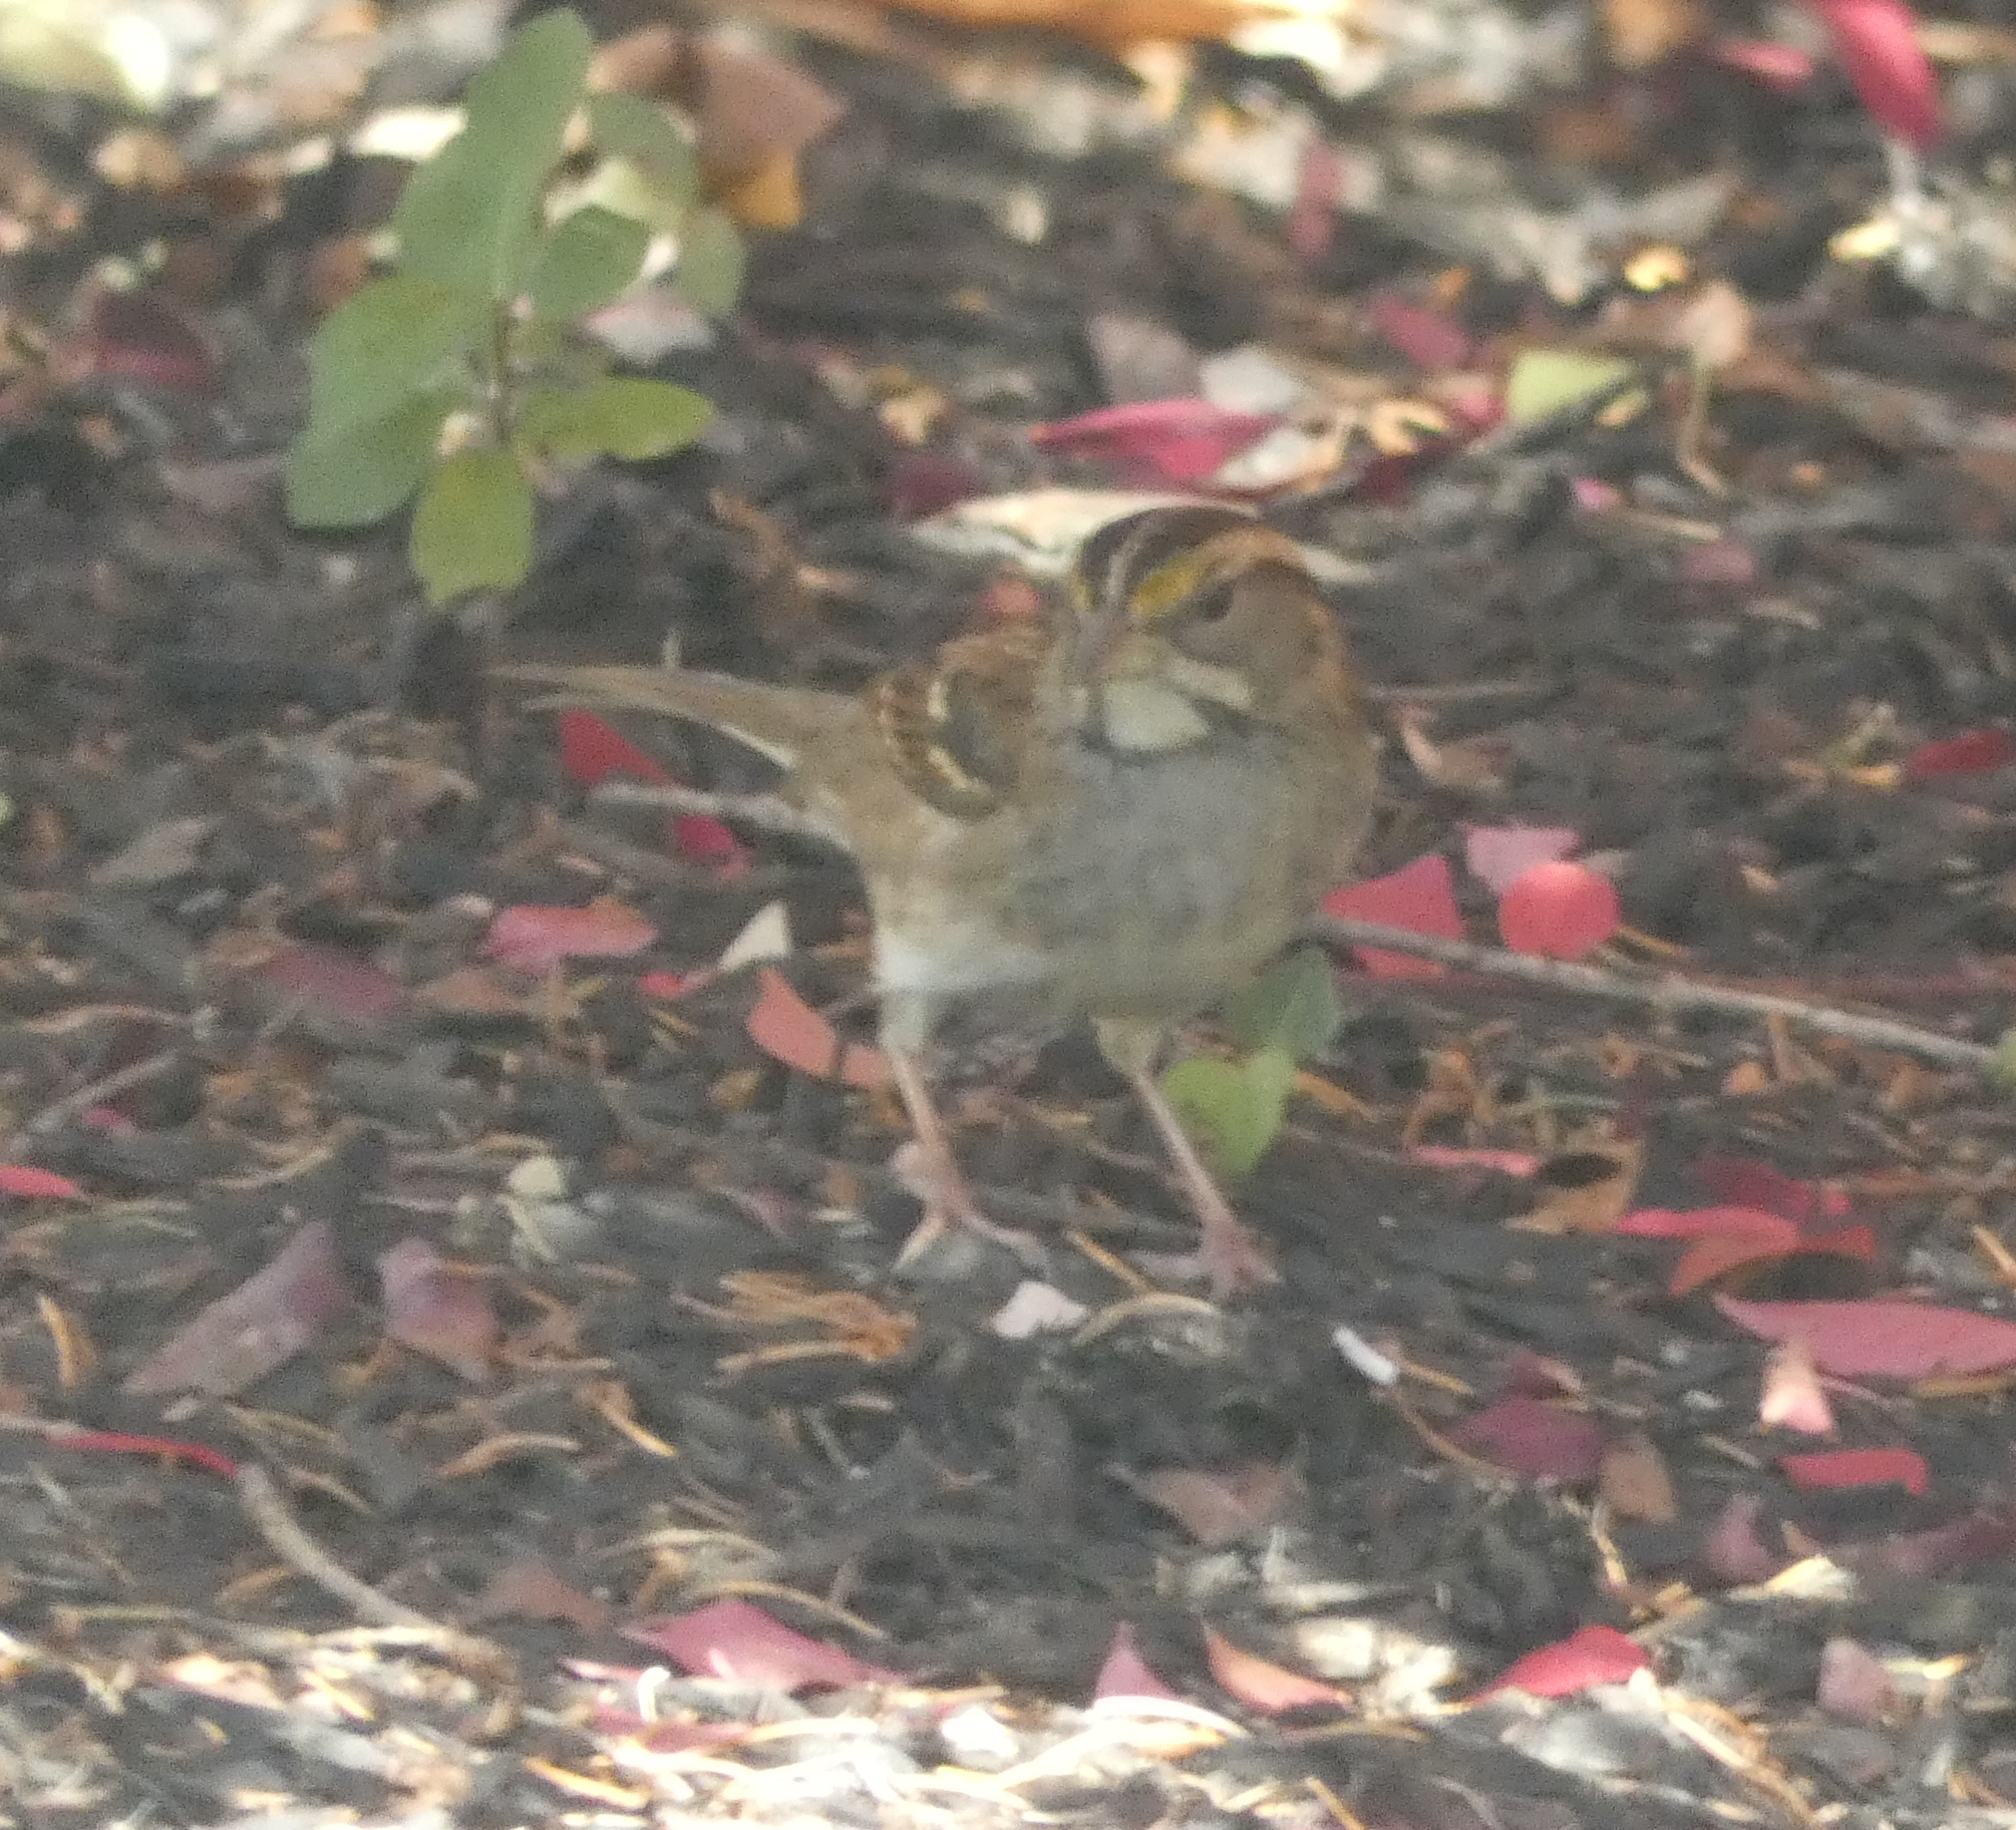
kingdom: Animalia
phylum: Chordata
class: Aves
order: Passeriformes
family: Passerellidae
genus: Zonotrichia
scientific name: Zonotrichia albicollis
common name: White-throated sparrow
